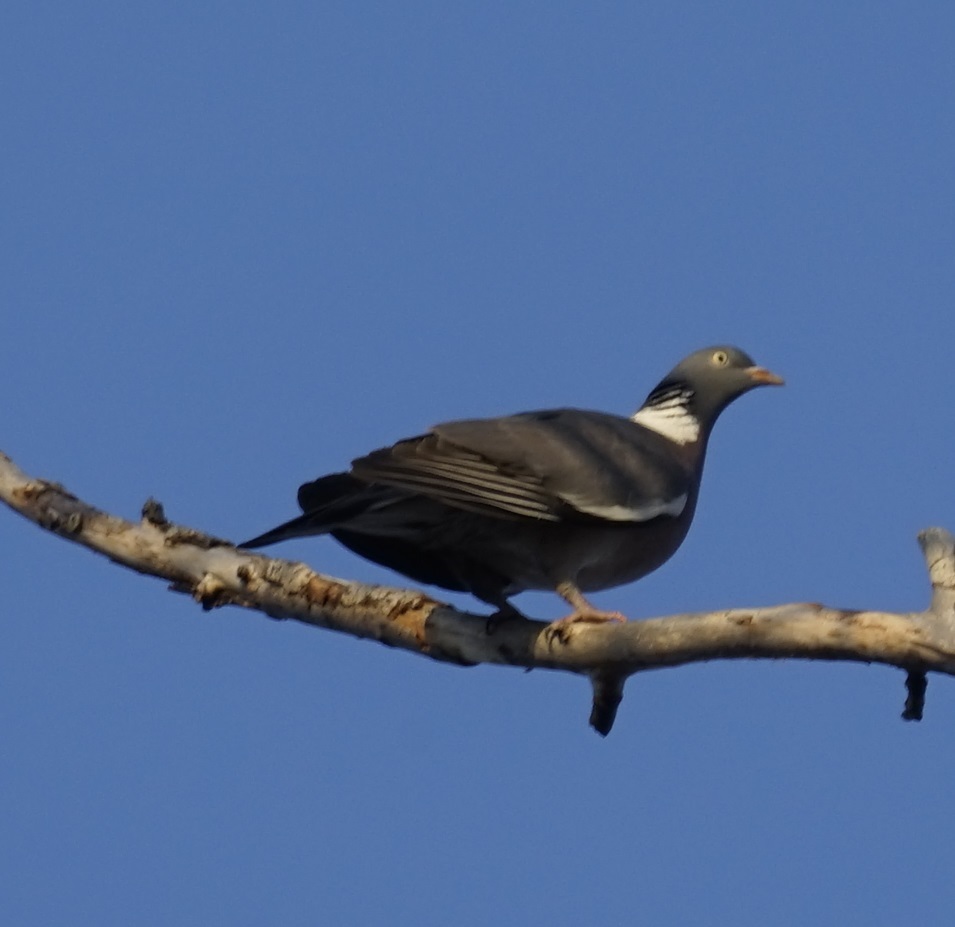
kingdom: Animalia
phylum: Chordata
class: Aves
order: Columbiformes
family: Columbidae
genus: Columba
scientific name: Columba palumbus
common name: Common wood pigeon
